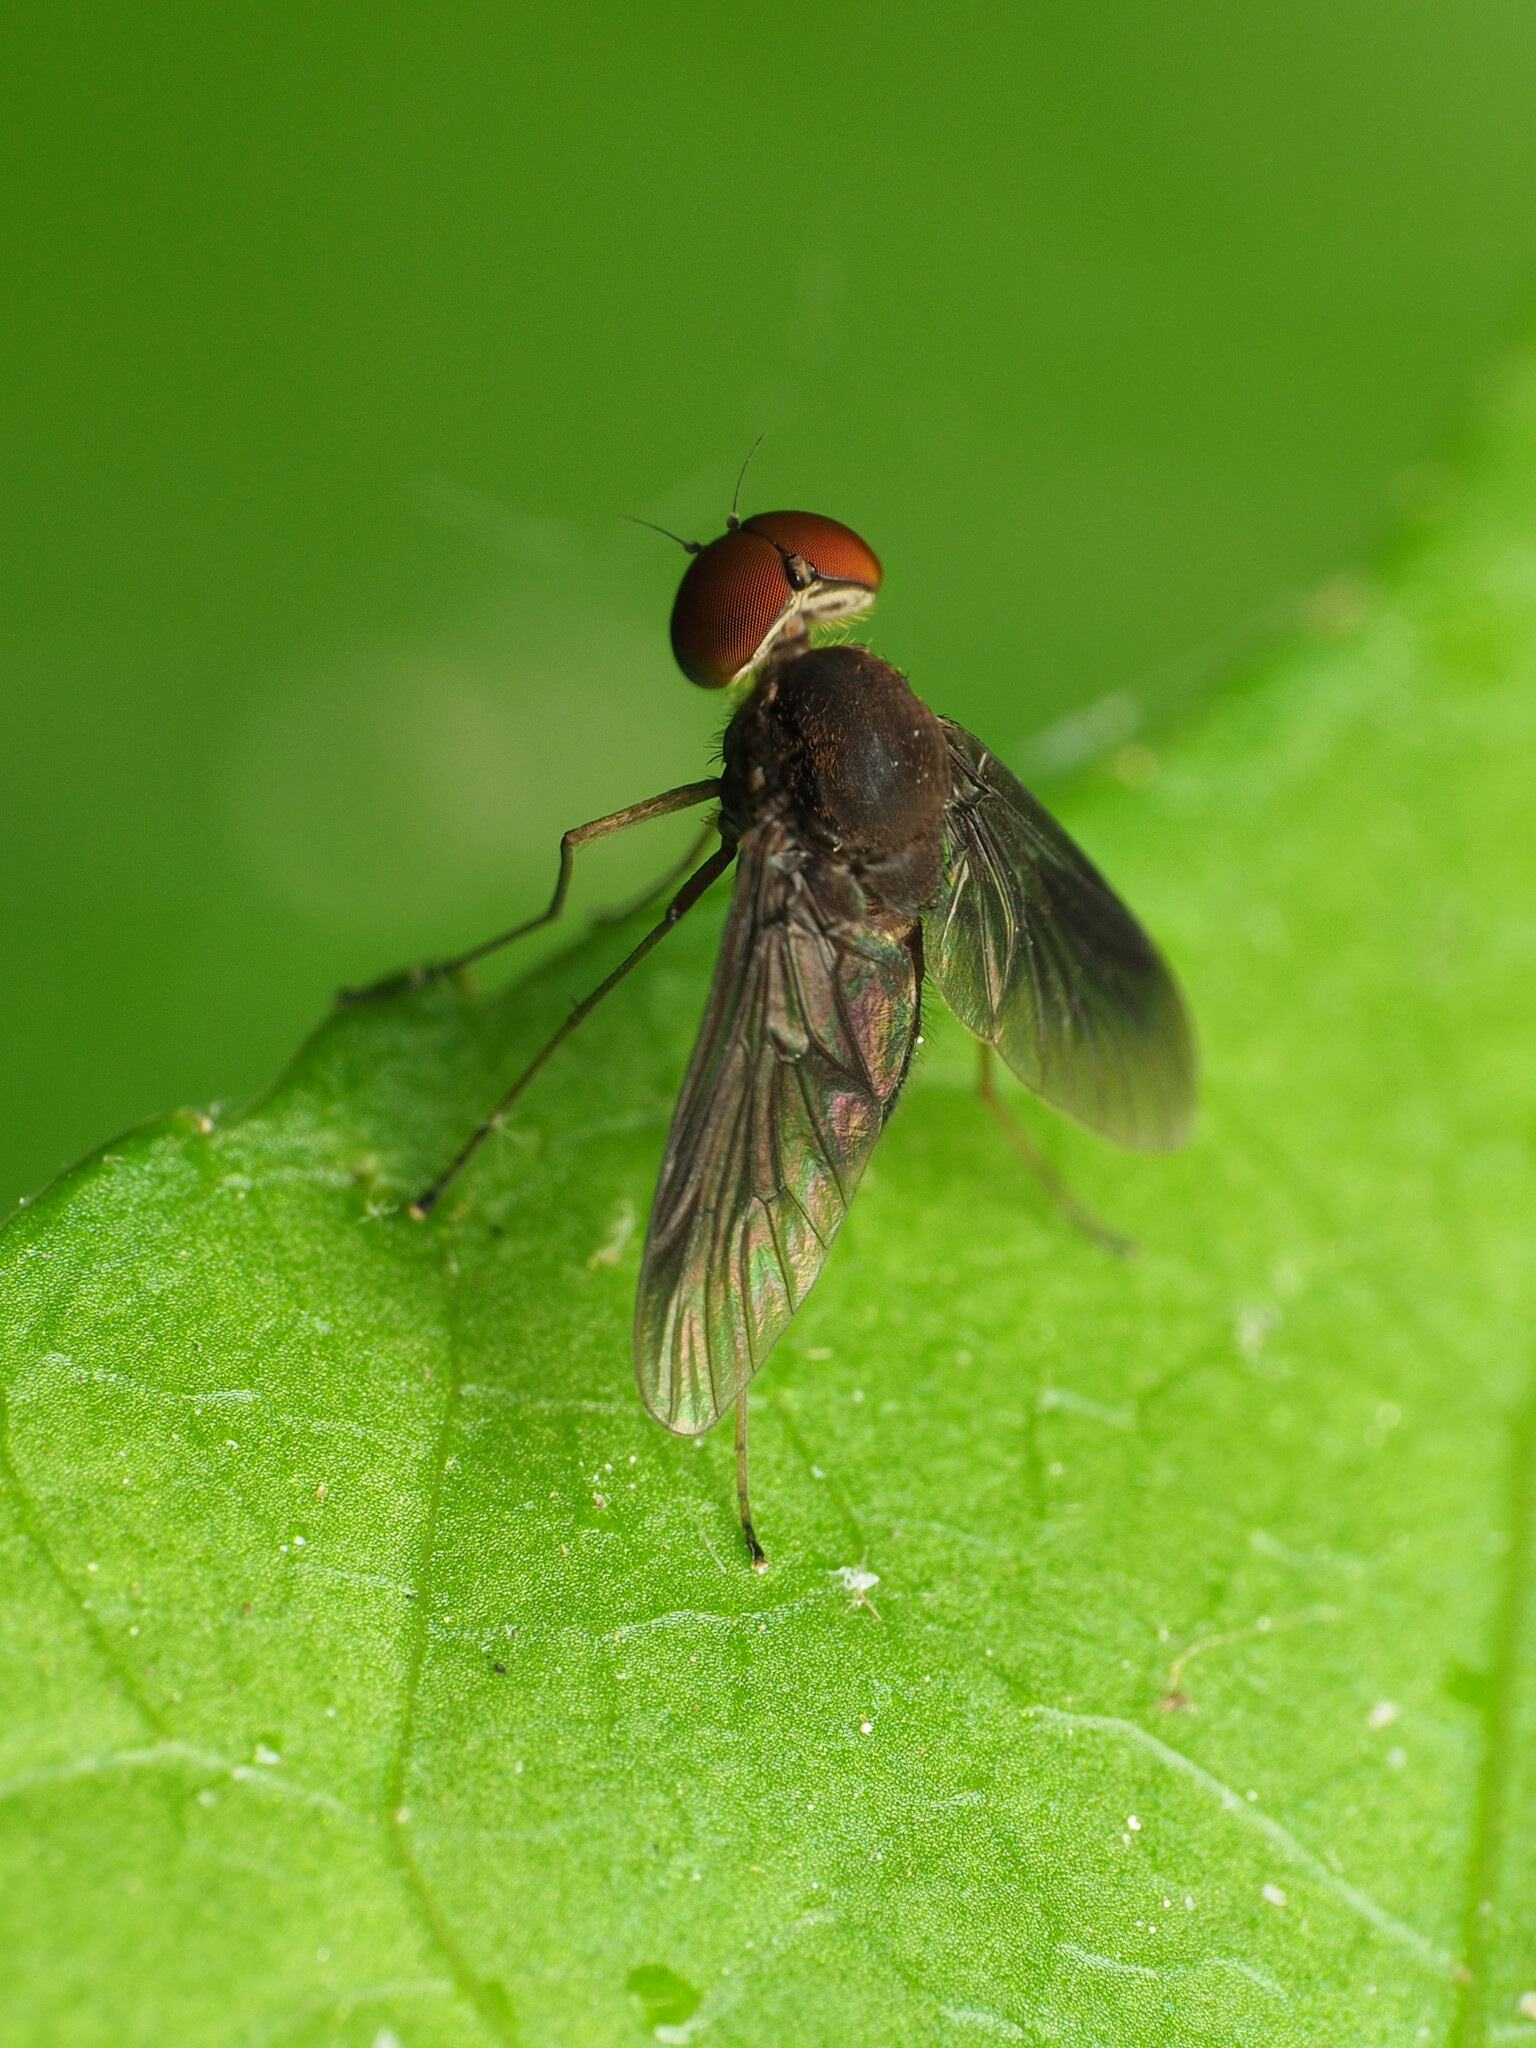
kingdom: Animalia
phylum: Arthropoda
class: Insecta
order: Diptera
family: Rhagionidae
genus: Chrysopilus
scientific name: Chrysopilus quadratus
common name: Quadrate snipe fly
